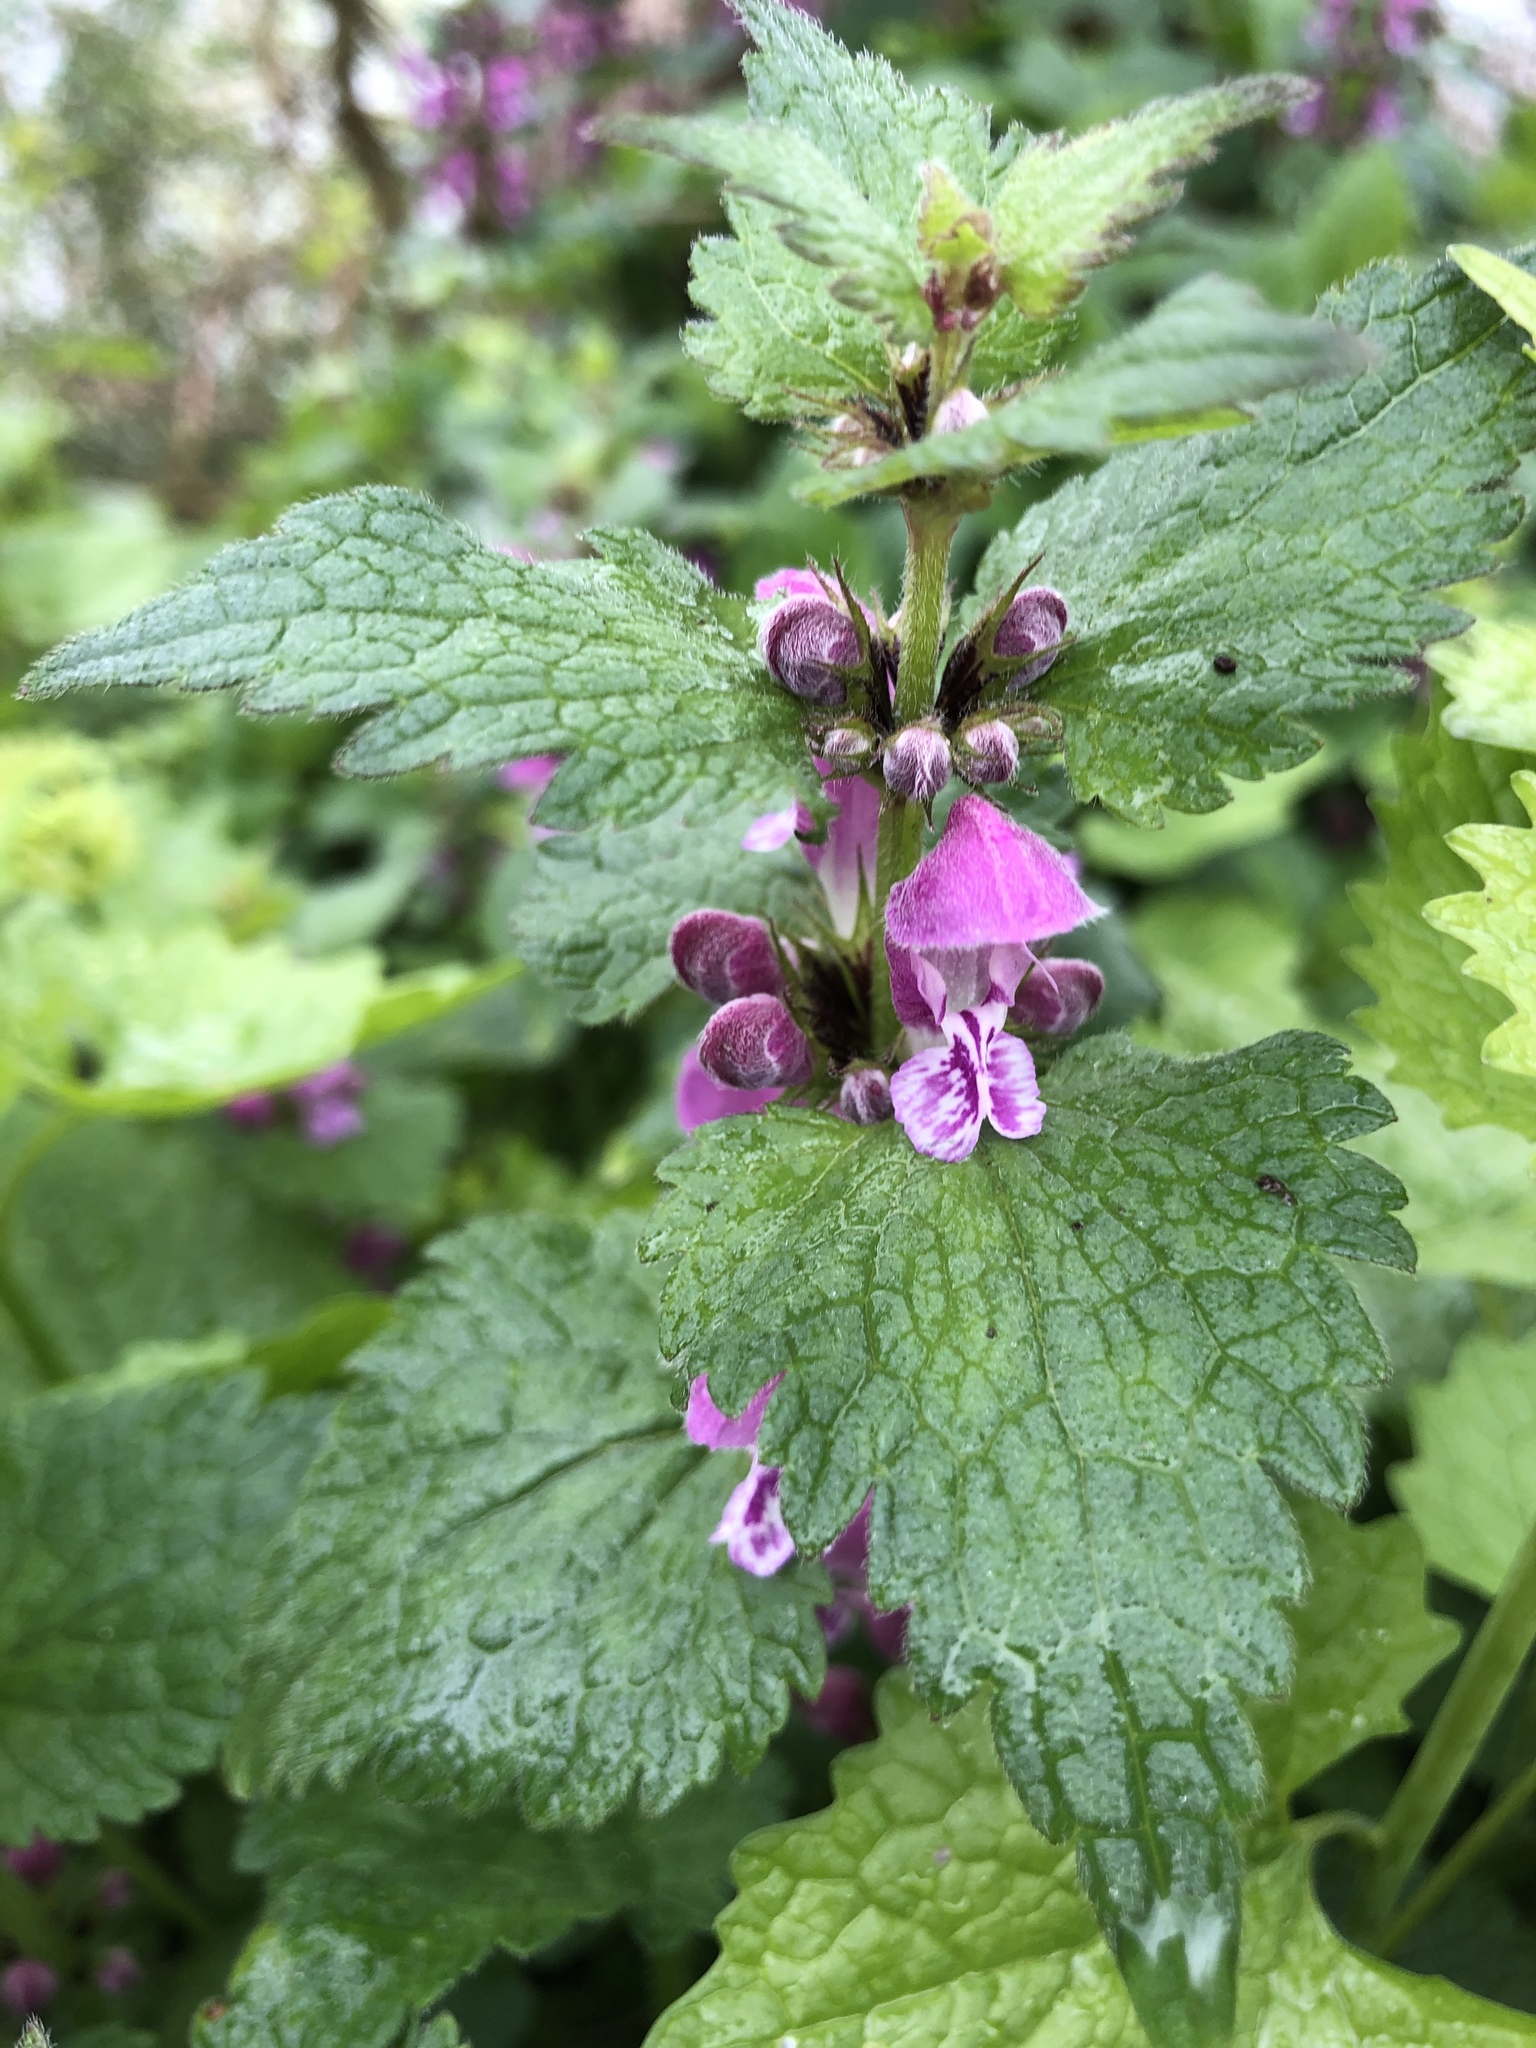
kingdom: Plantae
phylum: Tracheophyta
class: Magnoliopsida
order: Lamiales
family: Lamiaceae
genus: Lamium
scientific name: Lamium maculatum
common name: Spotted dead-nettle
